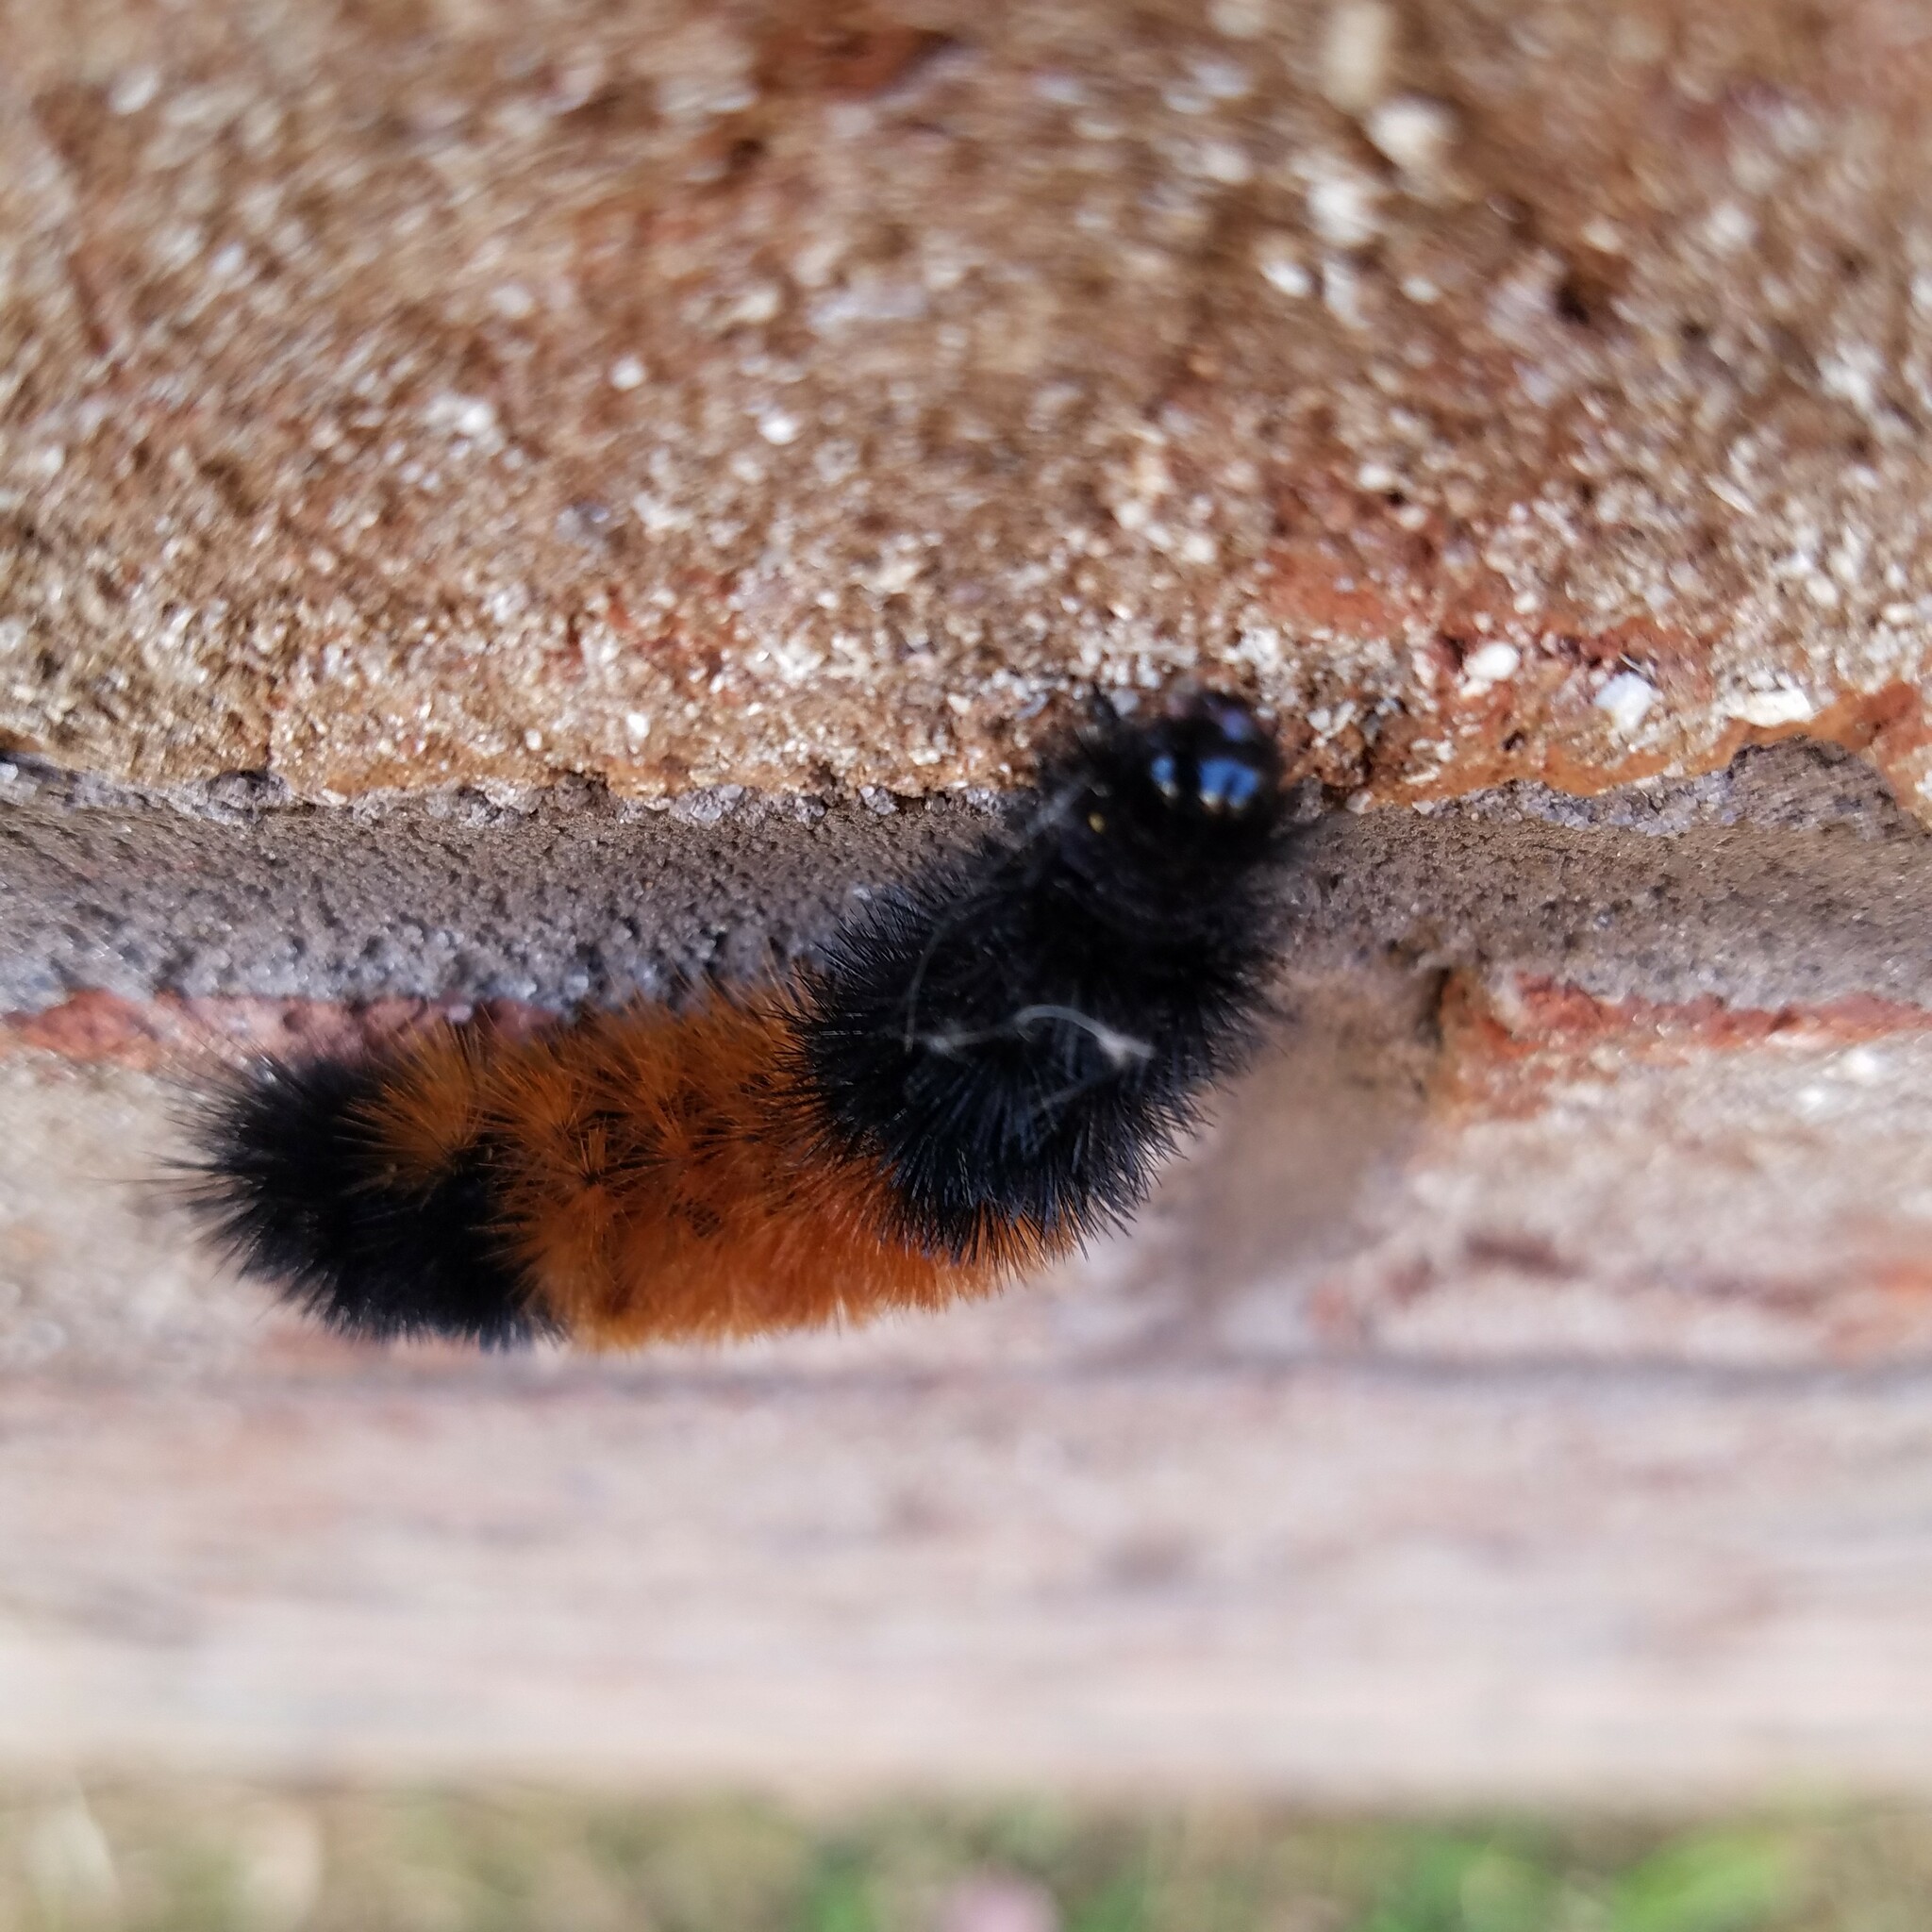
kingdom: Animalia
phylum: Arthropoda
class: Insecta
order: Lepidoptera
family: Erebidae
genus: Pyrrharctia
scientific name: Pyrrharctia isabella
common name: Isabella tiger moth
